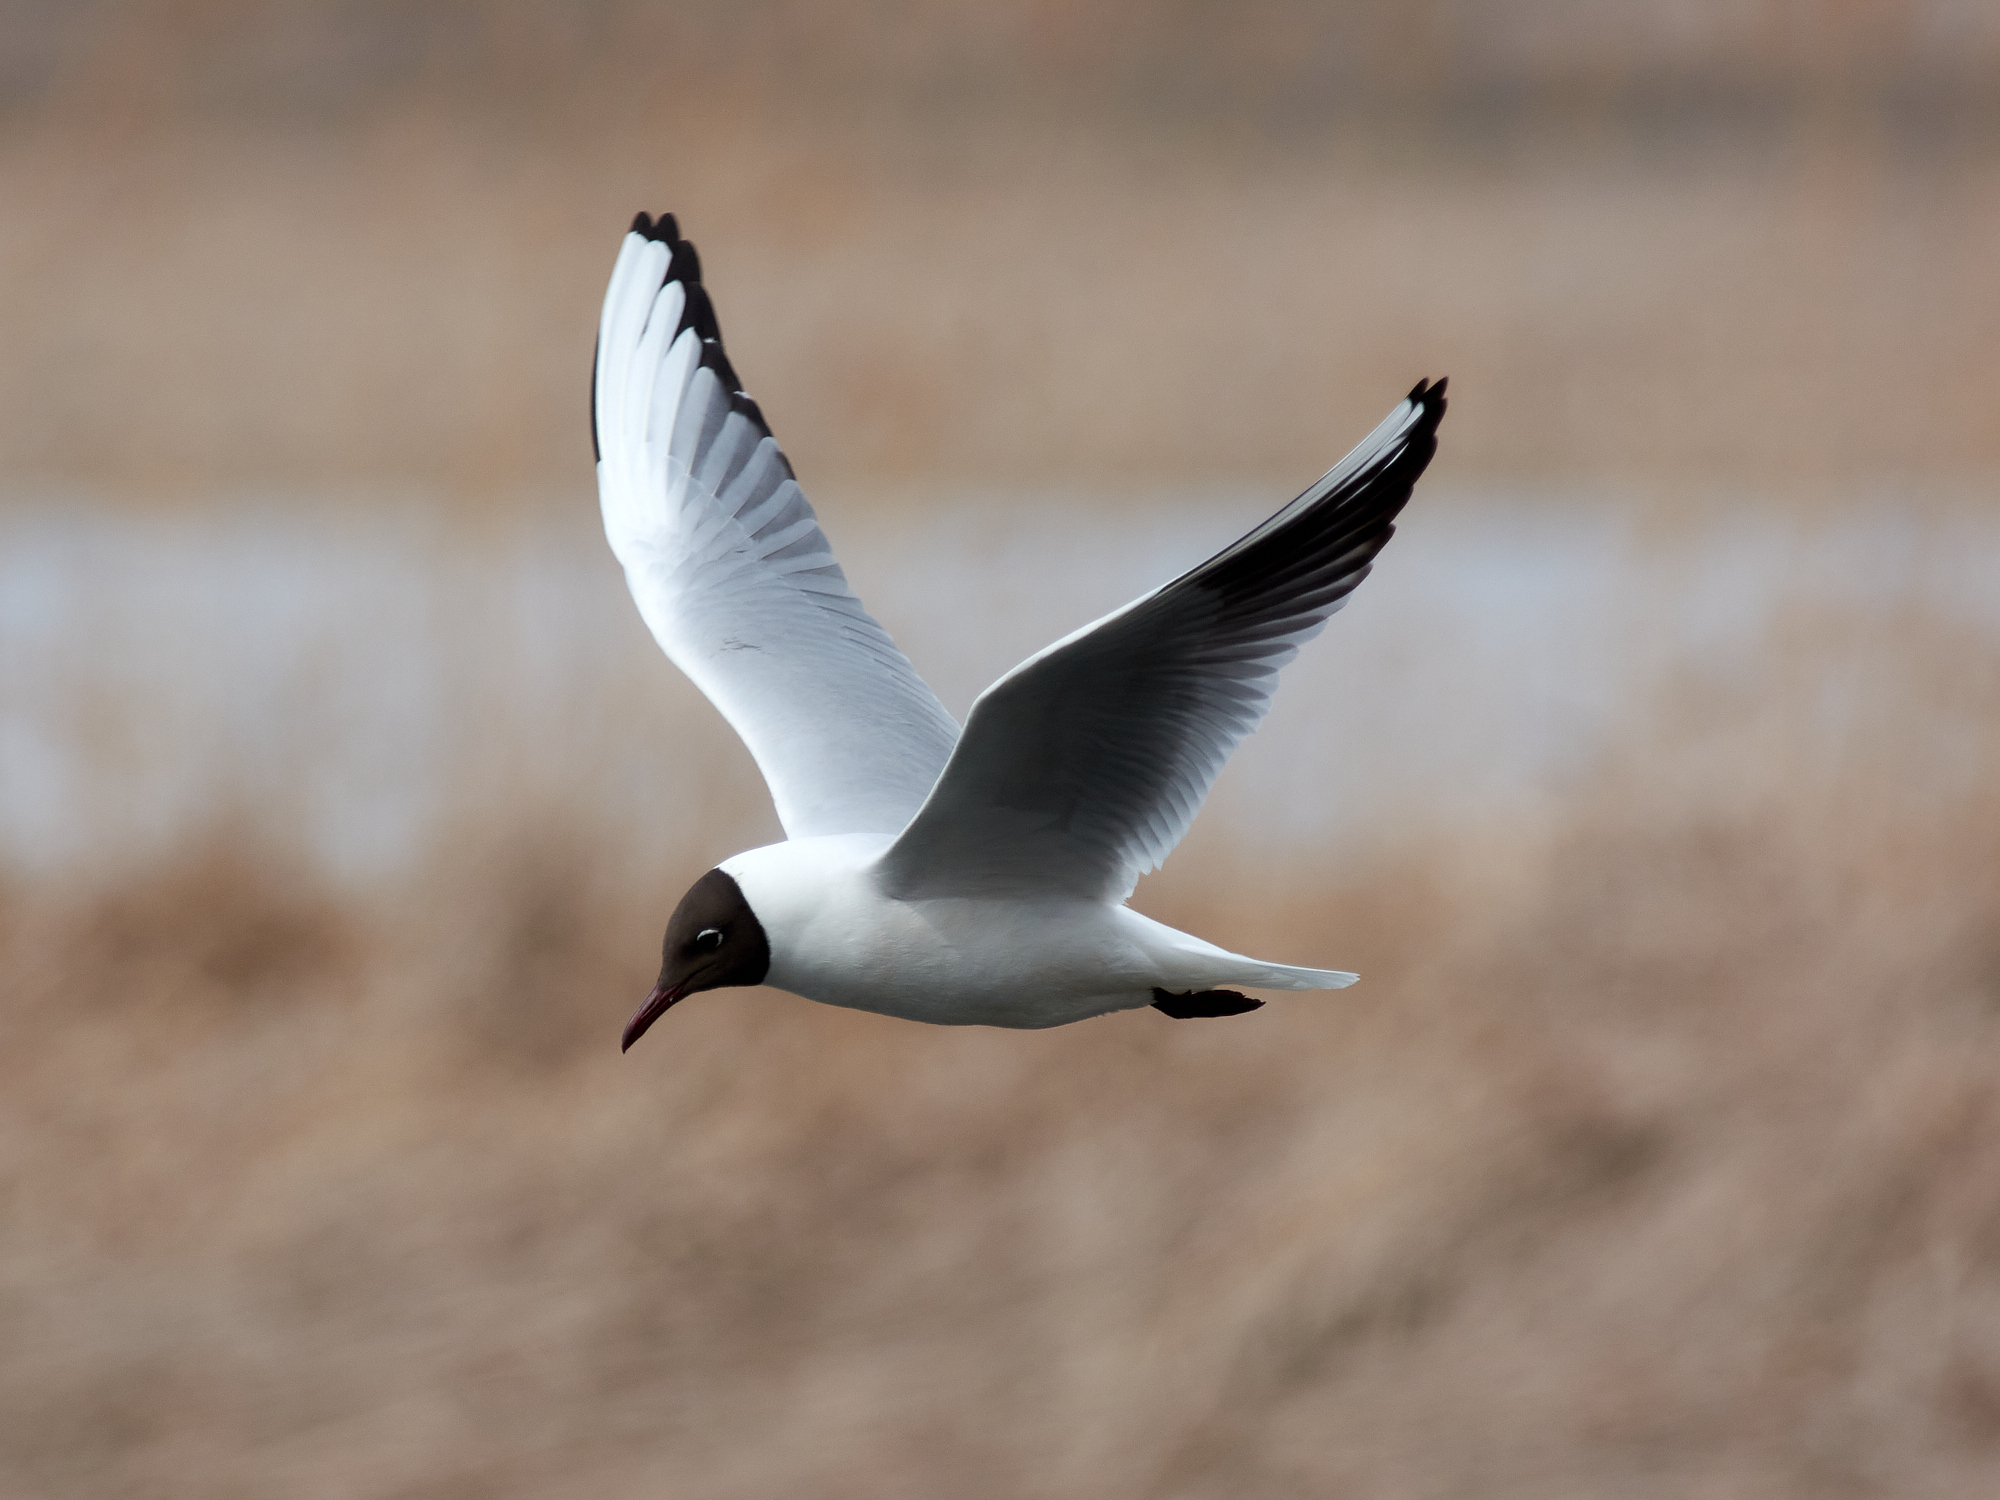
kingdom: Animalia
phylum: Chordata
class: Aves
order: Charadriiformes
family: Laridae
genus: Chroicocephalus
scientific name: Chroicocephalus ridibundus
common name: Black-headed gull
